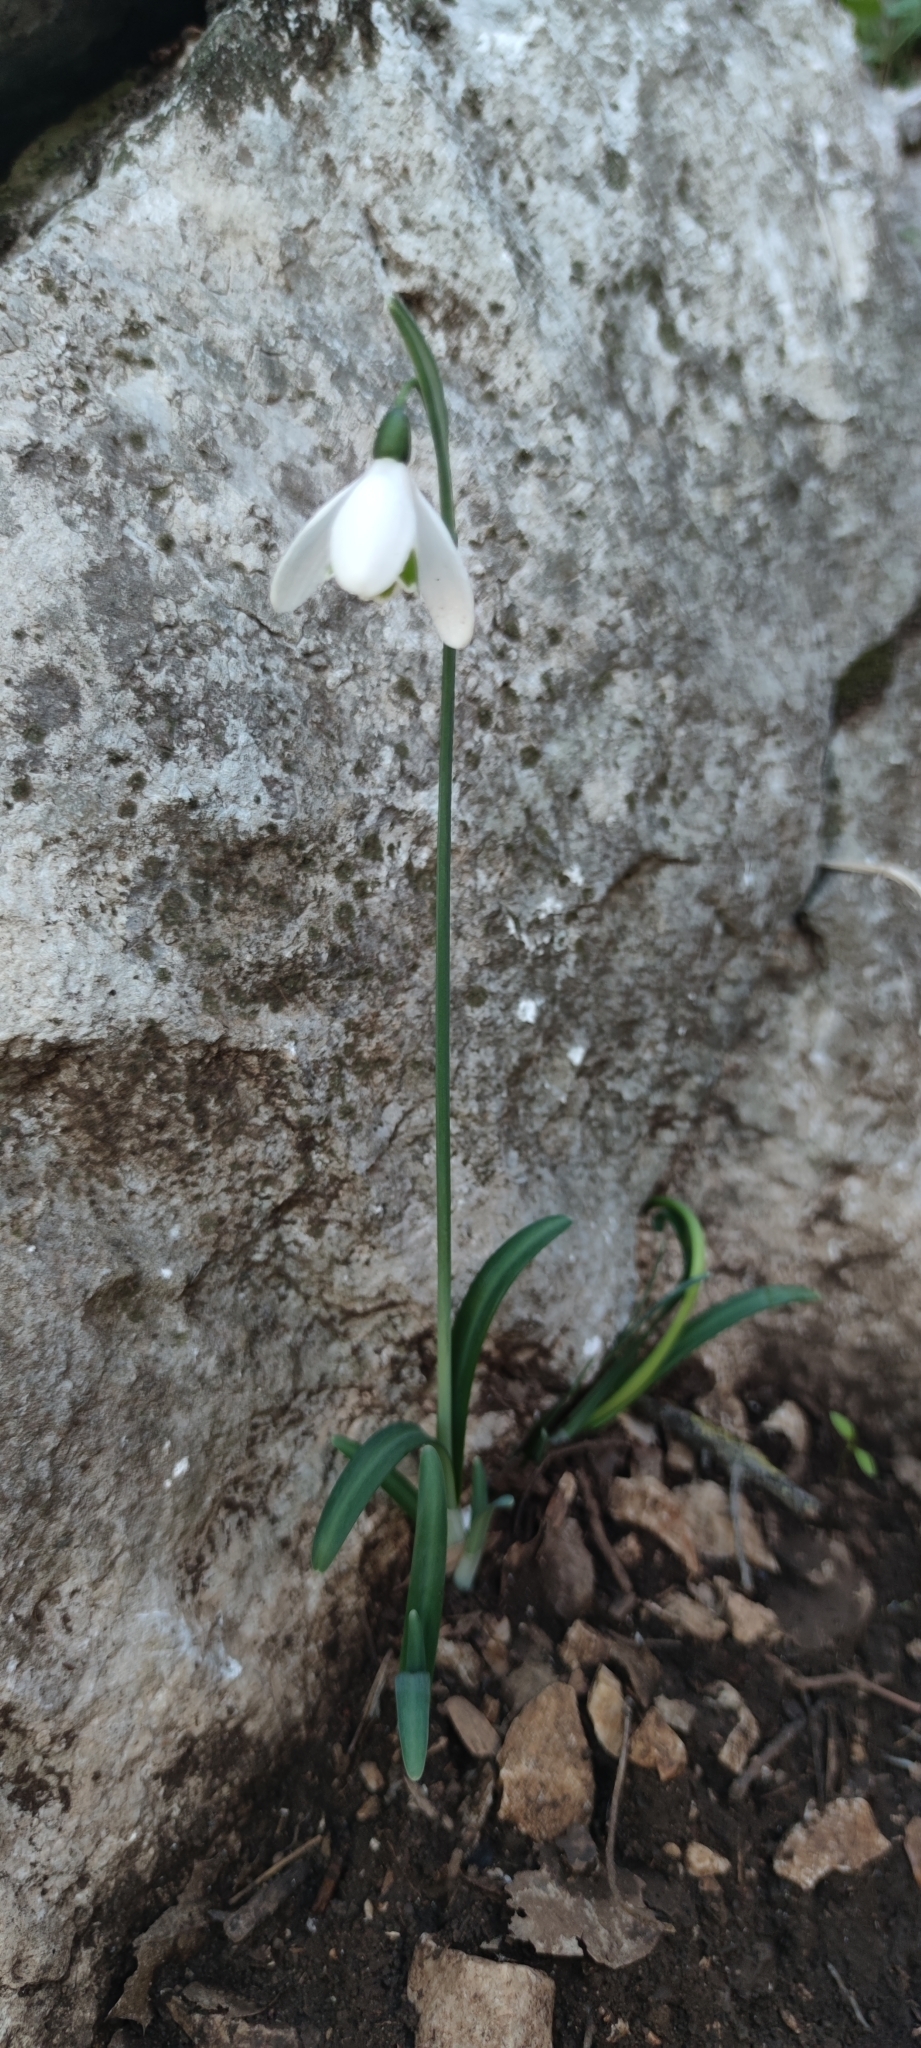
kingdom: Plantae
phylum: Tracheophyta
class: Liliopsida
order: Asparagales
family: Amaryllidaceae
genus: Galanthus
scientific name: Galanthus peshmenii
